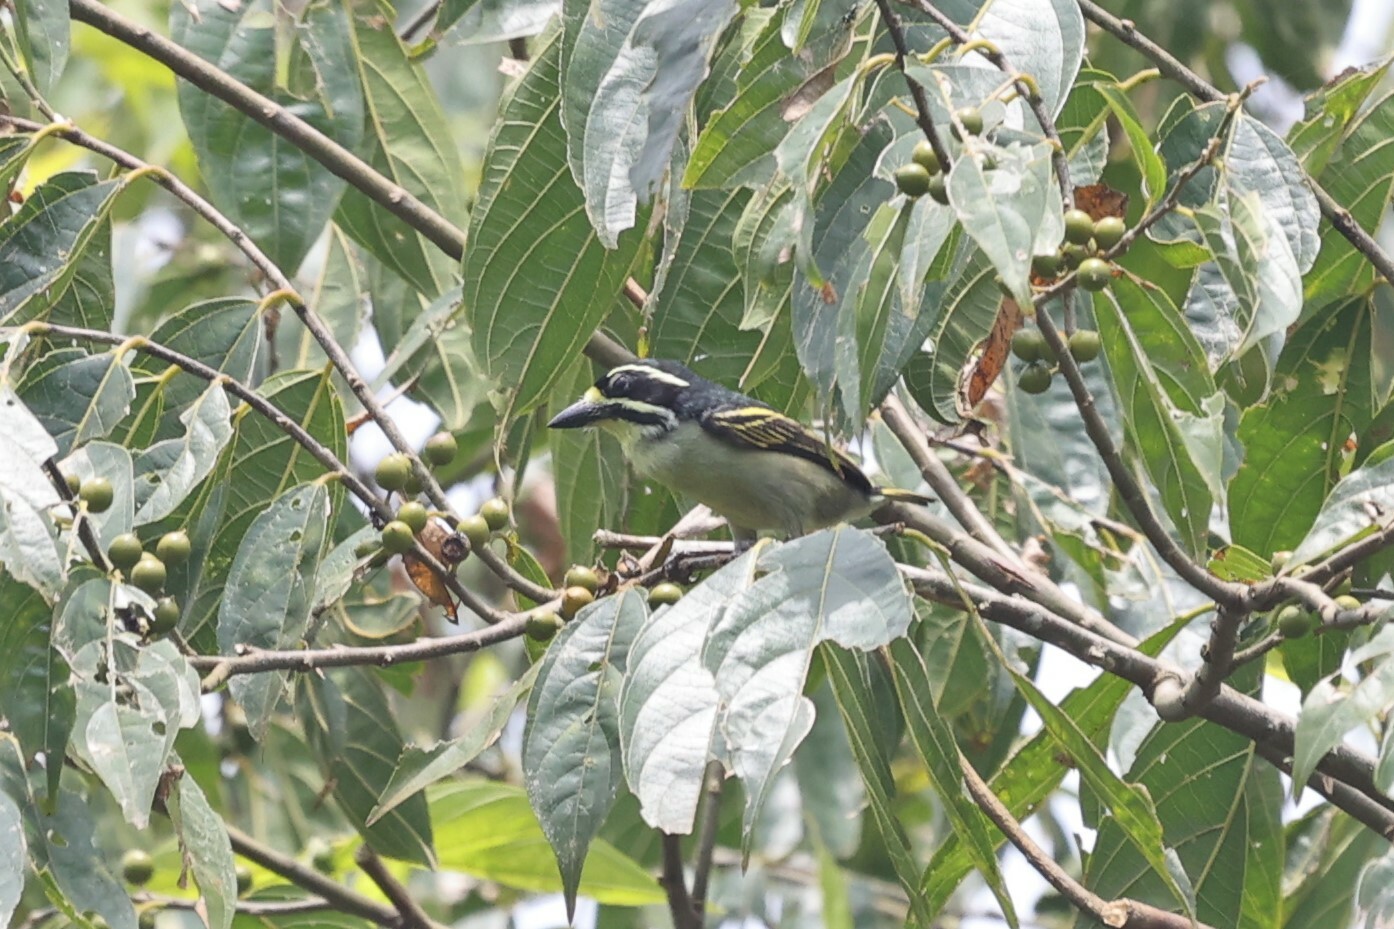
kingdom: Animalia
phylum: Chordata
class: Aves
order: Piciformes
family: Lybiidae
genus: Pogoniulus
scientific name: Pogoniulus subsulphureus
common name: Yellow-throated tinkerbird
